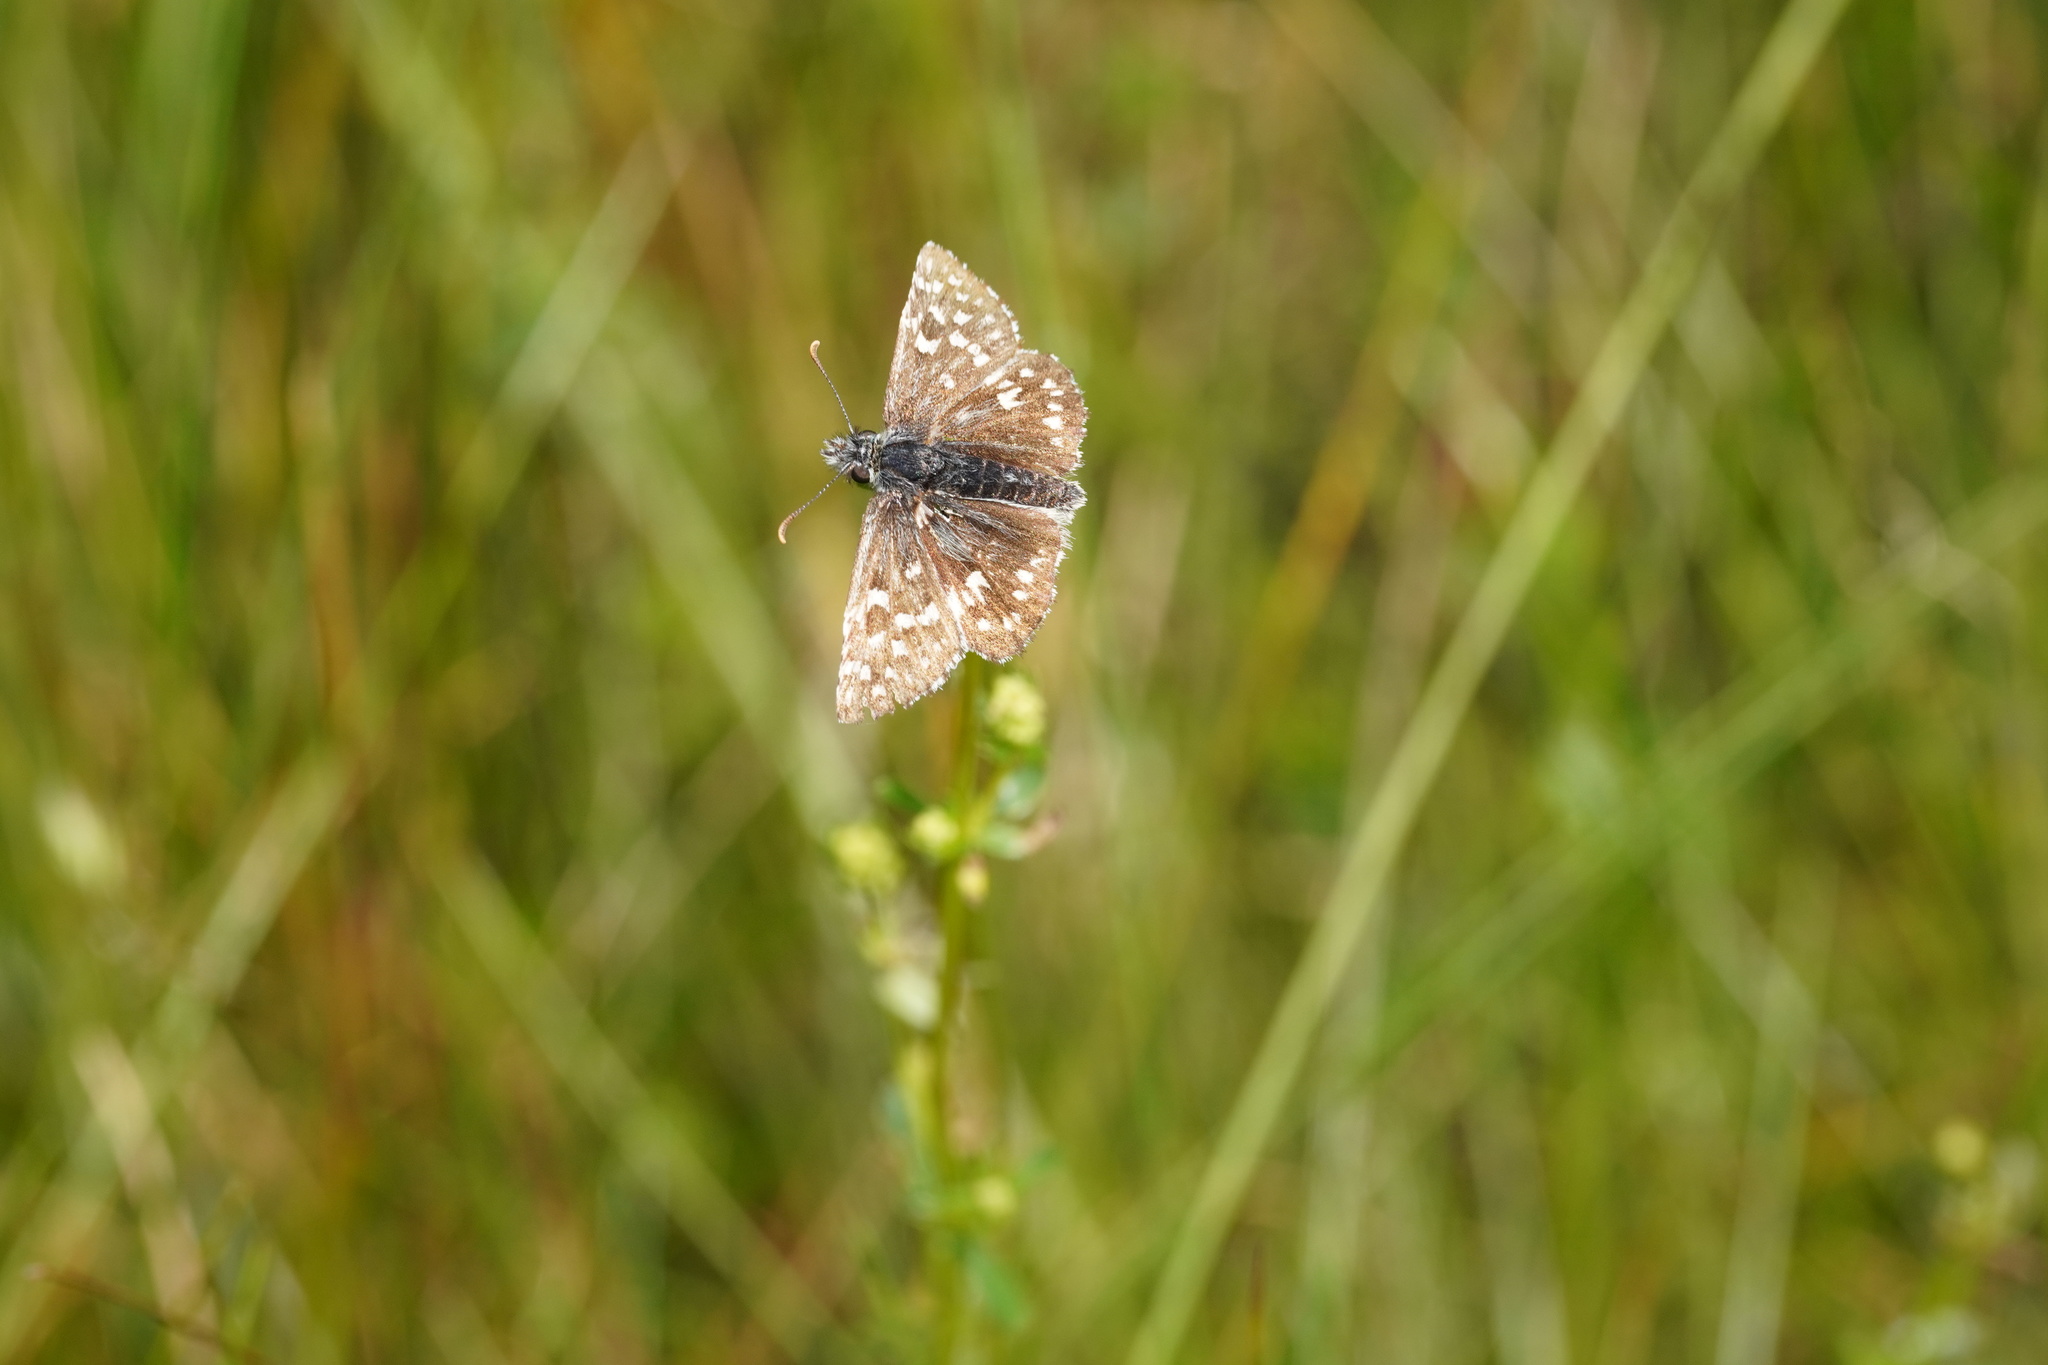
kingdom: Animalia
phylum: Arthropoda
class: Insecta
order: Lepidoptera
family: Hesperiidae
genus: Pyrgus
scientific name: Pyrgus malvae
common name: Grizzled skipper
